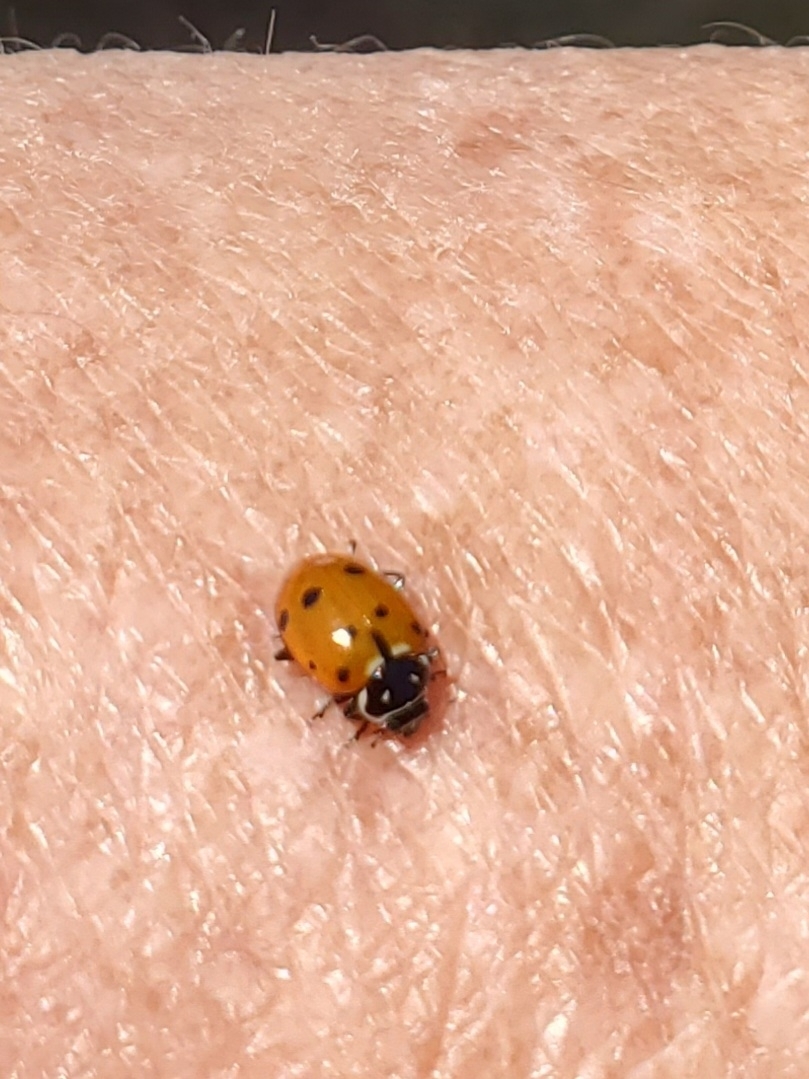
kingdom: Animalia
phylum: Arthropoda
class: Insecta
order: Coleoptera
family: Coccinellidae
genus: Hippodamia
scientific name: Hippodamia convergens
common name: Convergent lady beetle
